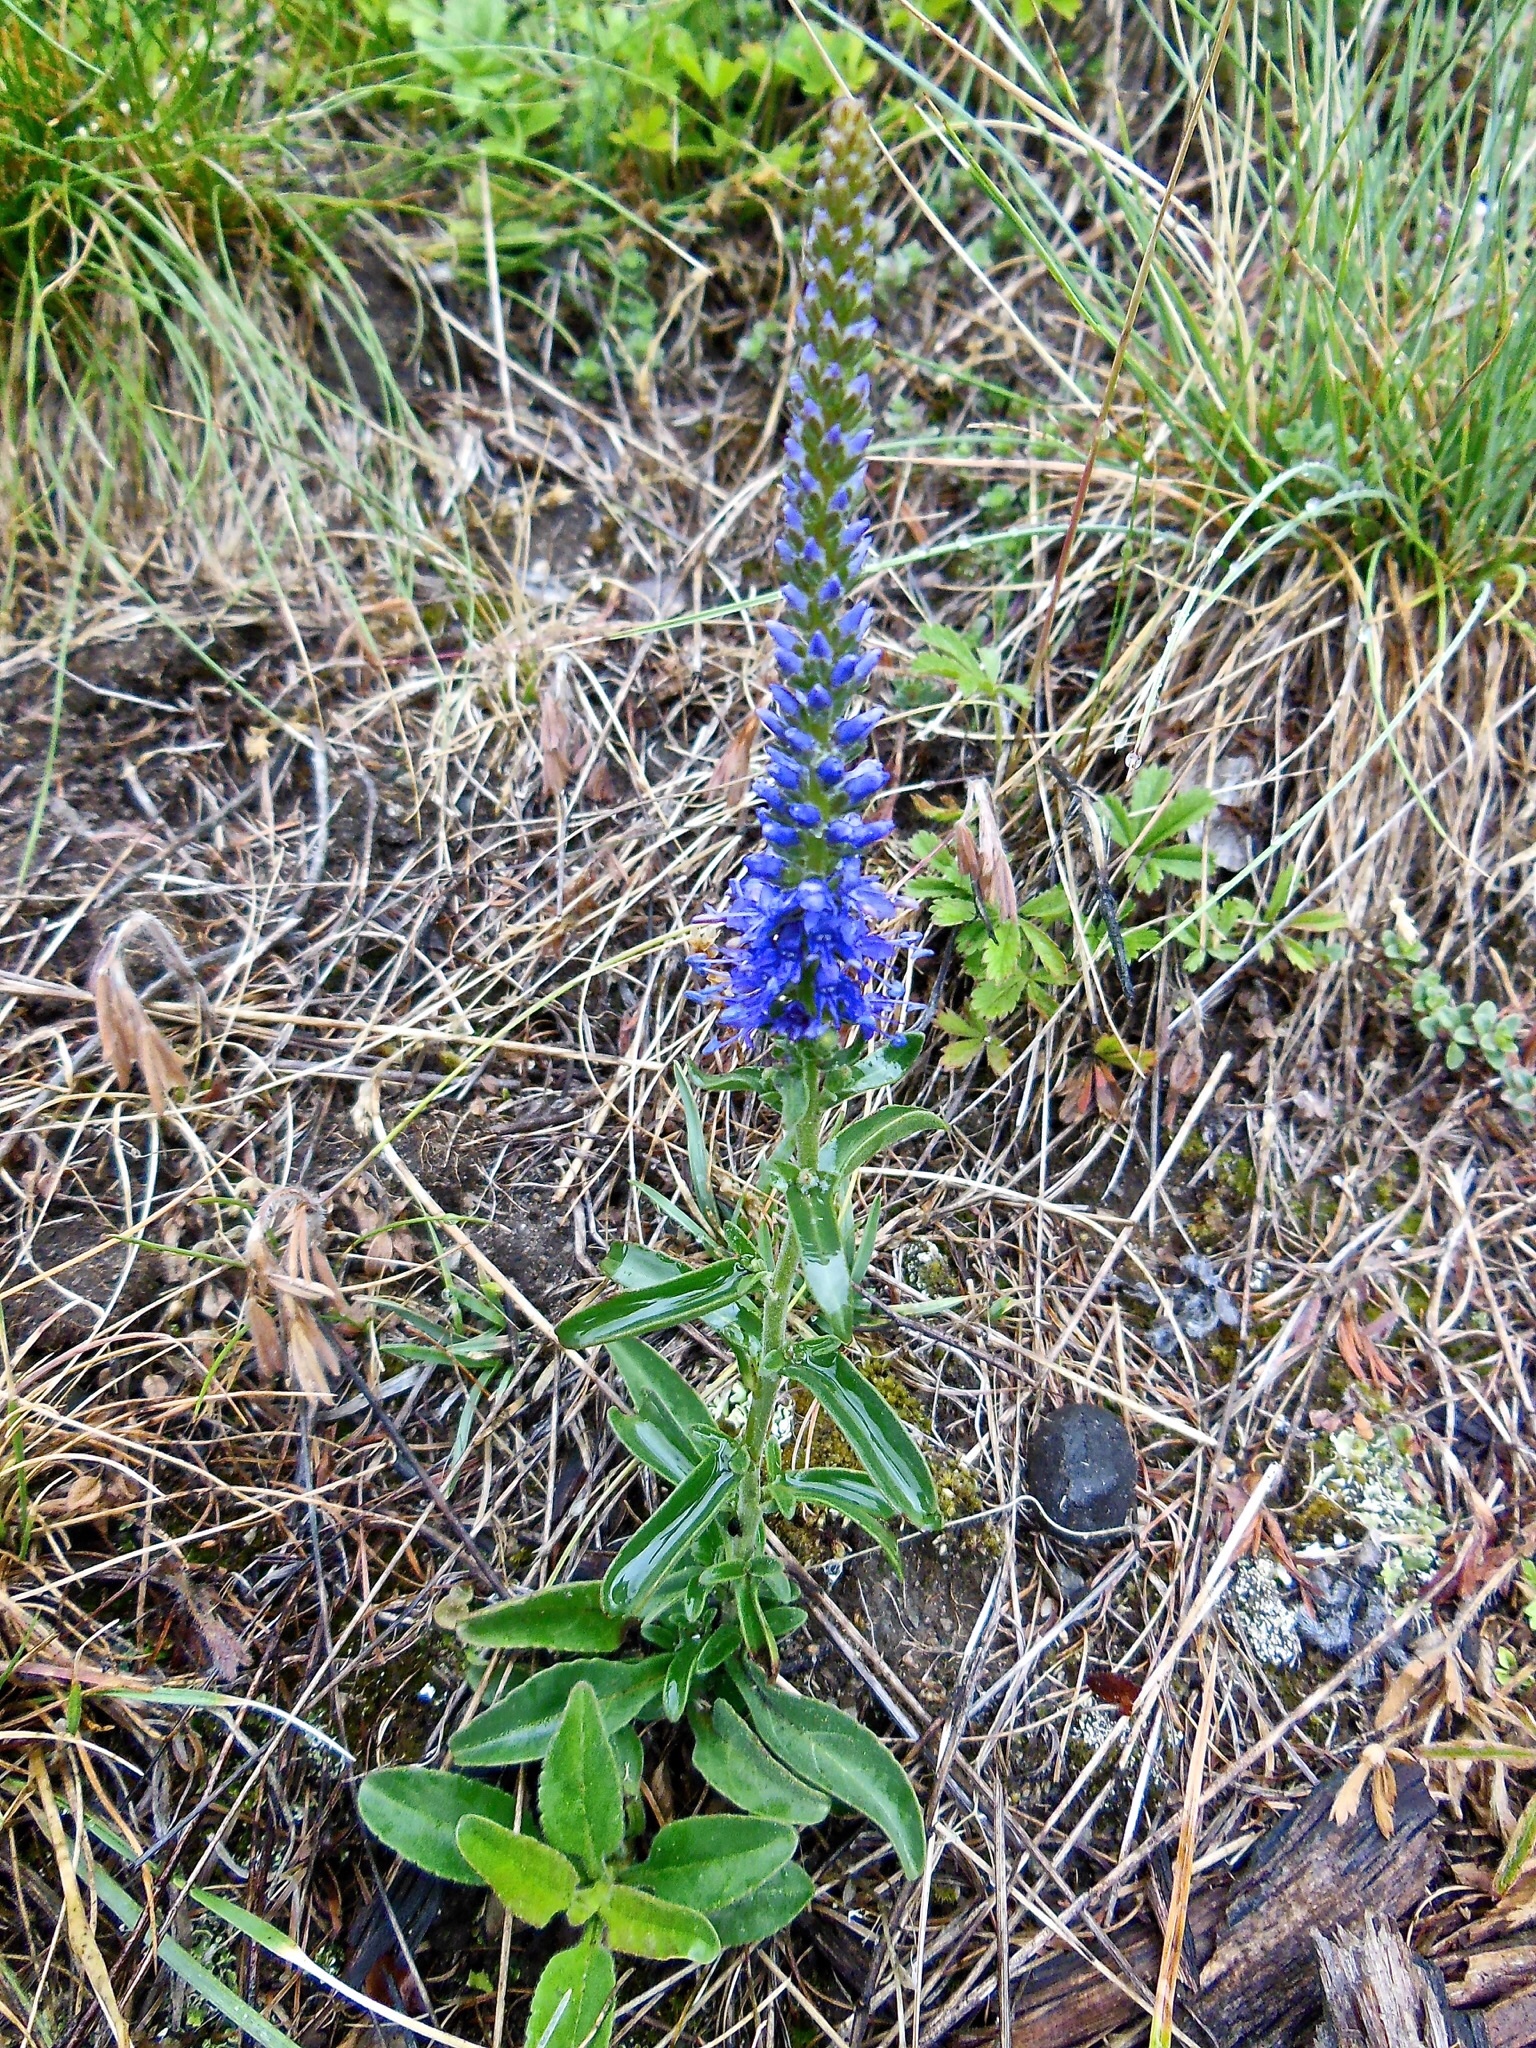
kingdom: Plantae
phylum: Tracheophyta
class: Magnoliopsida
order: Lamiales
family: Plantaginaceae
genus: Veronica
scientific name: Veronica spicata
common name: Spiked speedwell
